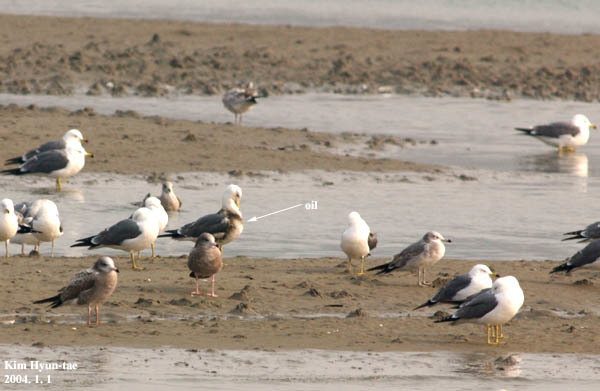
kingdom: Animalia
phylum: Chordata
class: Aves
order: Charadriiformes
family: Laridae
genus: Larus
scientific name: Larus crassirostris
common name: Black-tailed gull
